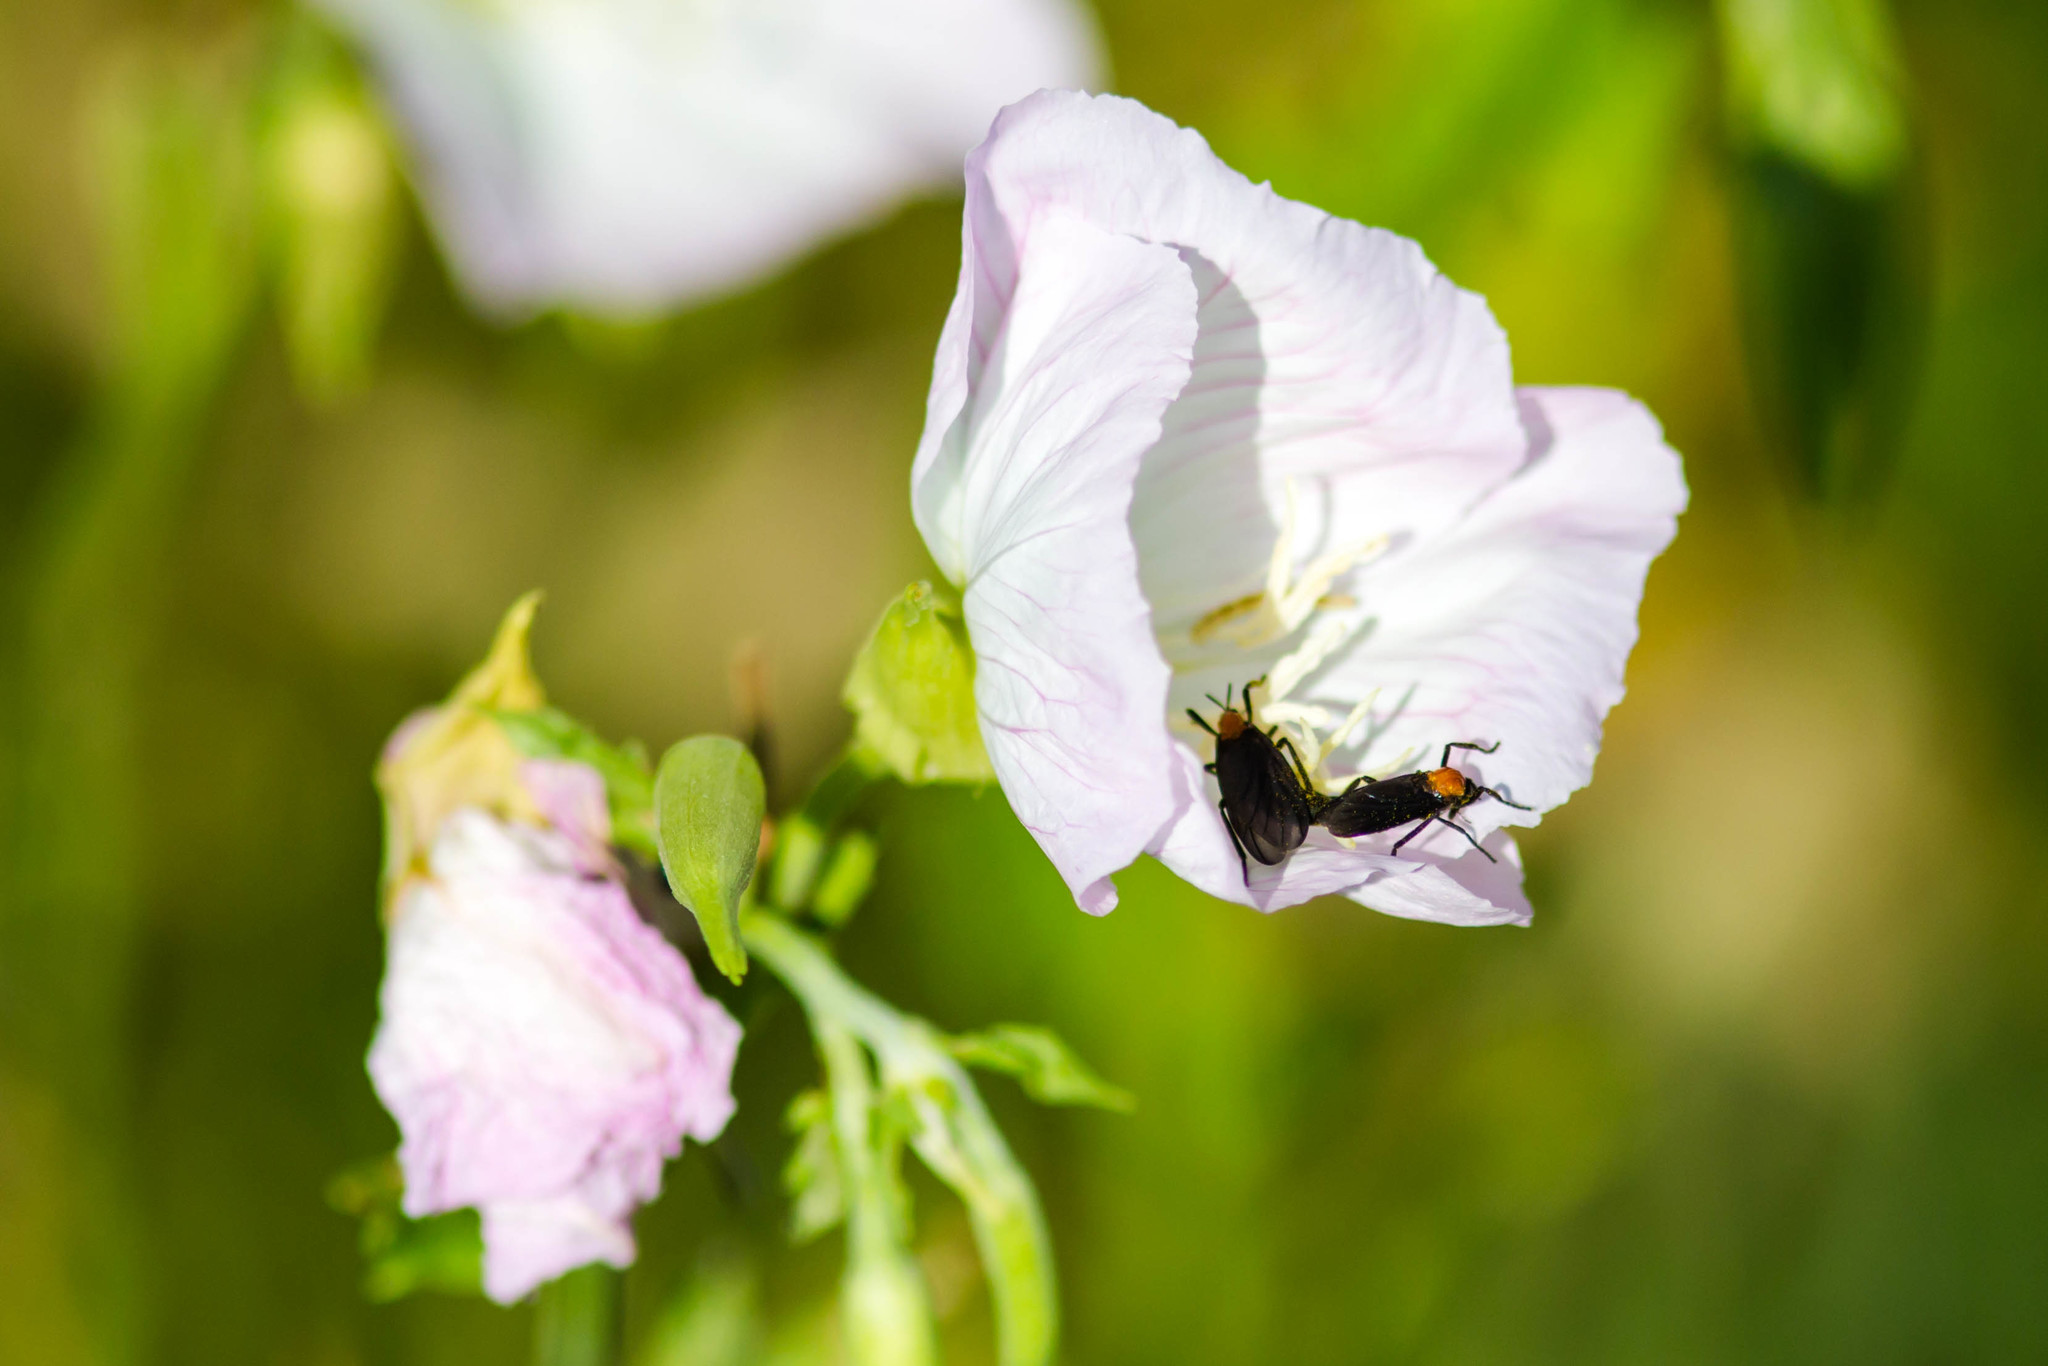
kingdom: Animalia
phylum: Arthropoda
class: Insecta
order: Diptera
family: Bibionidae
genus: Plecia
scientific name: Plecia nearctica
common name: March fly
